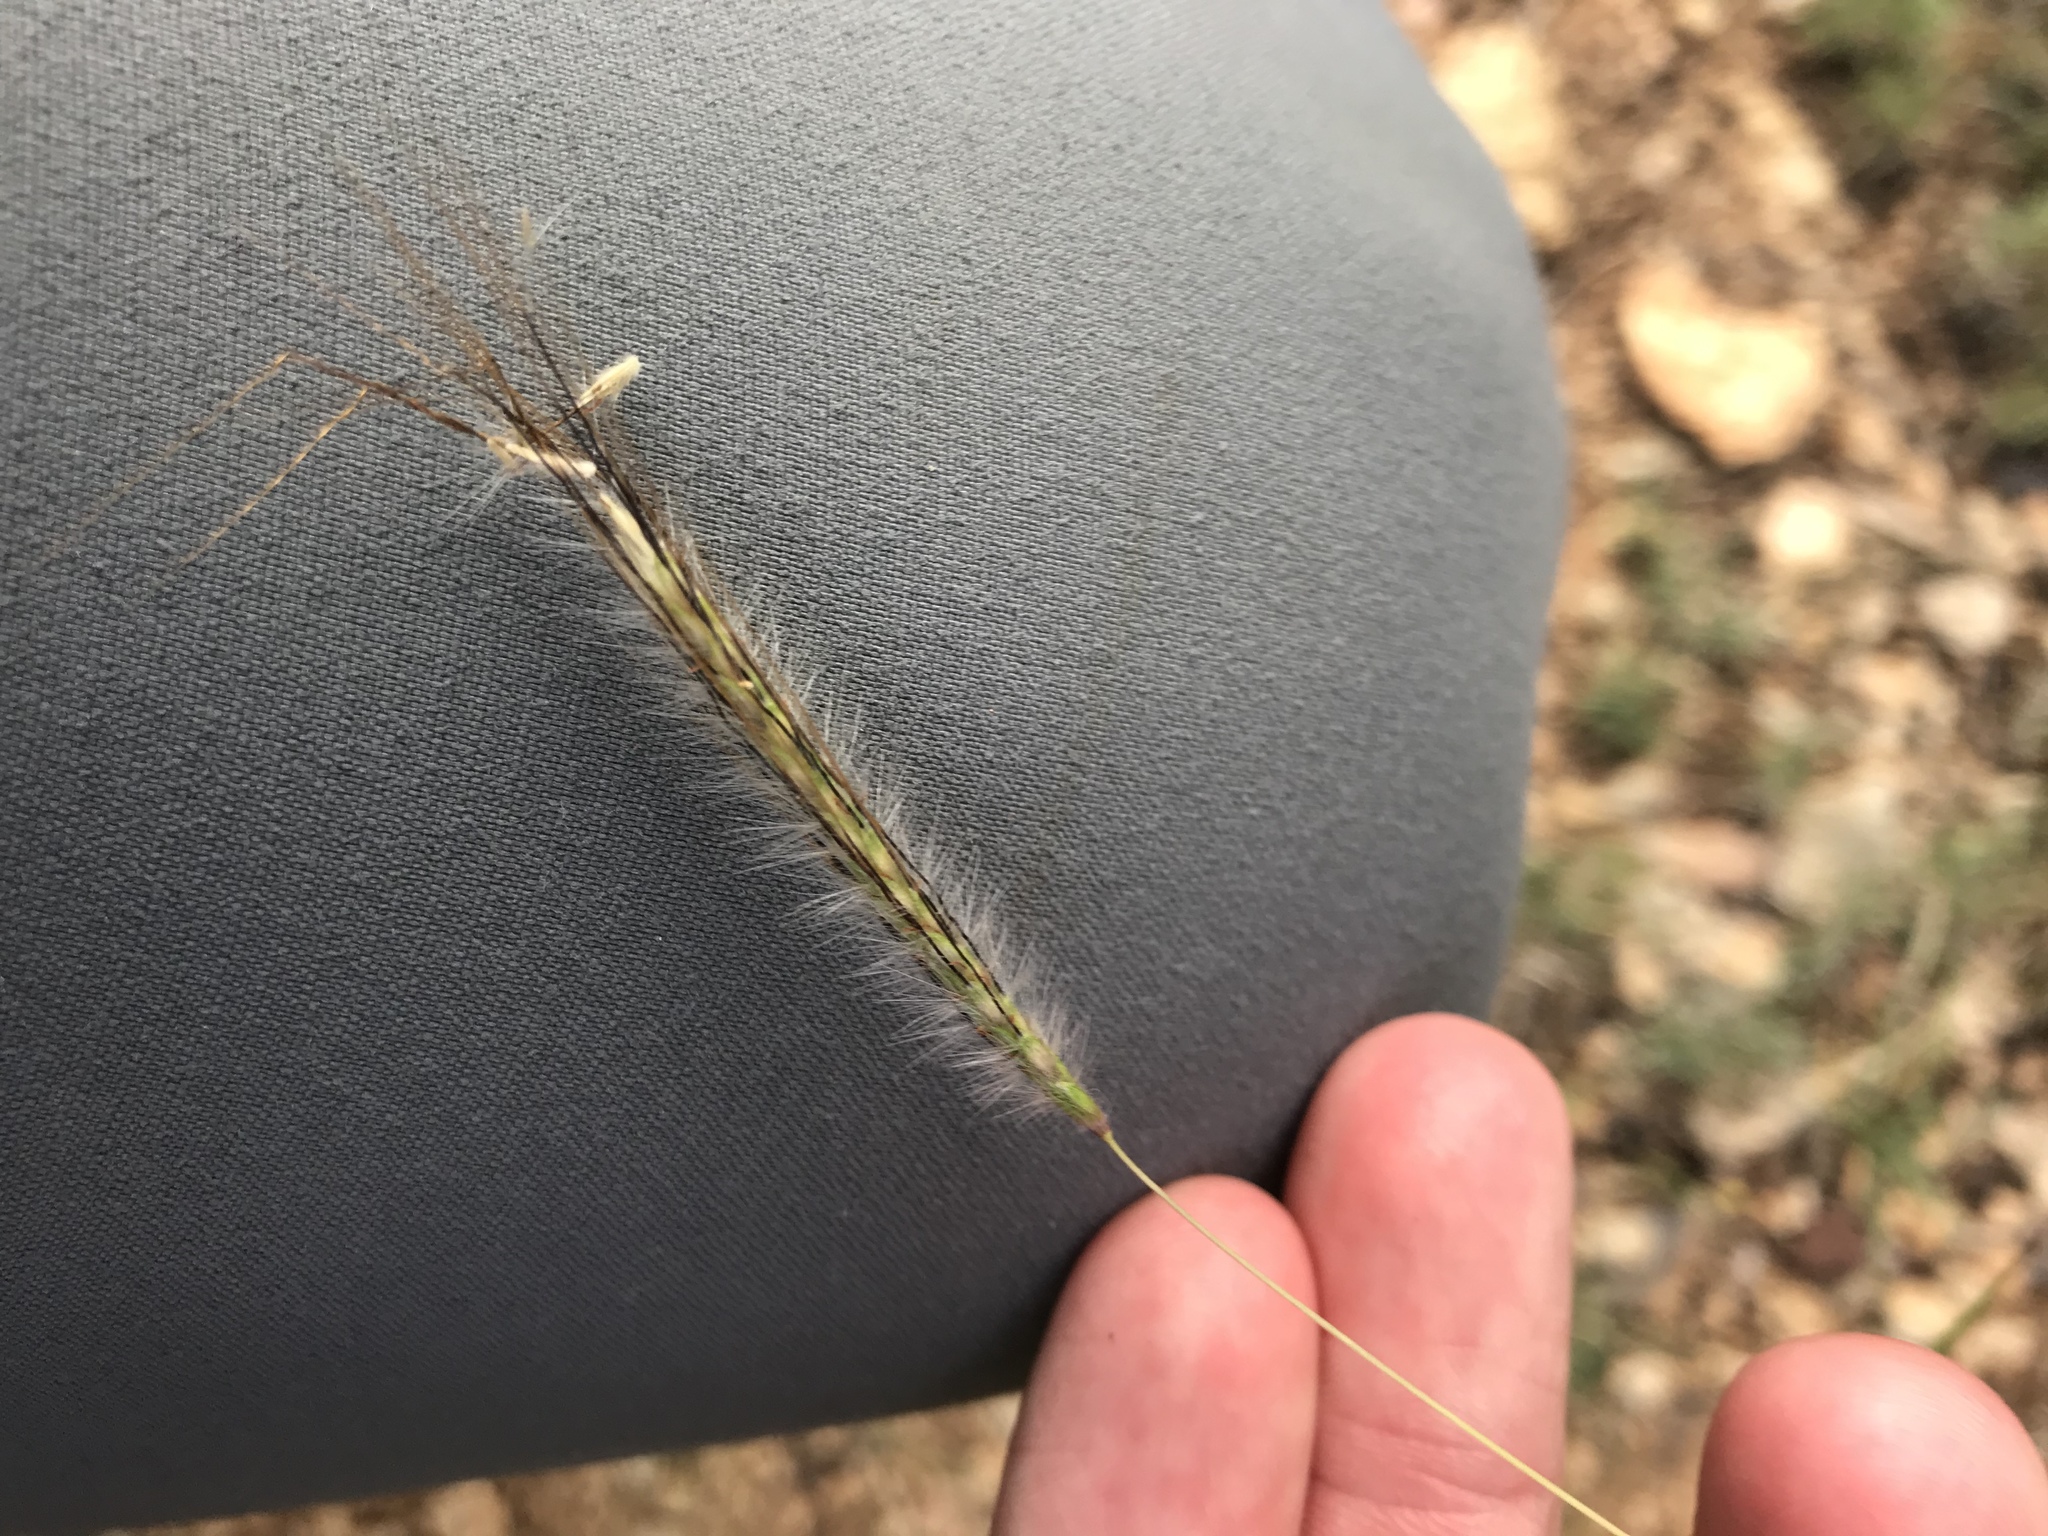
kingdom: Plantae
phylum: Tracheophyta
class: Liliopsida
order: Poales
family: Poaceae
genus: Dichanthium
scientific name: Dichanthium sericeum
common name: Silky bluestem
